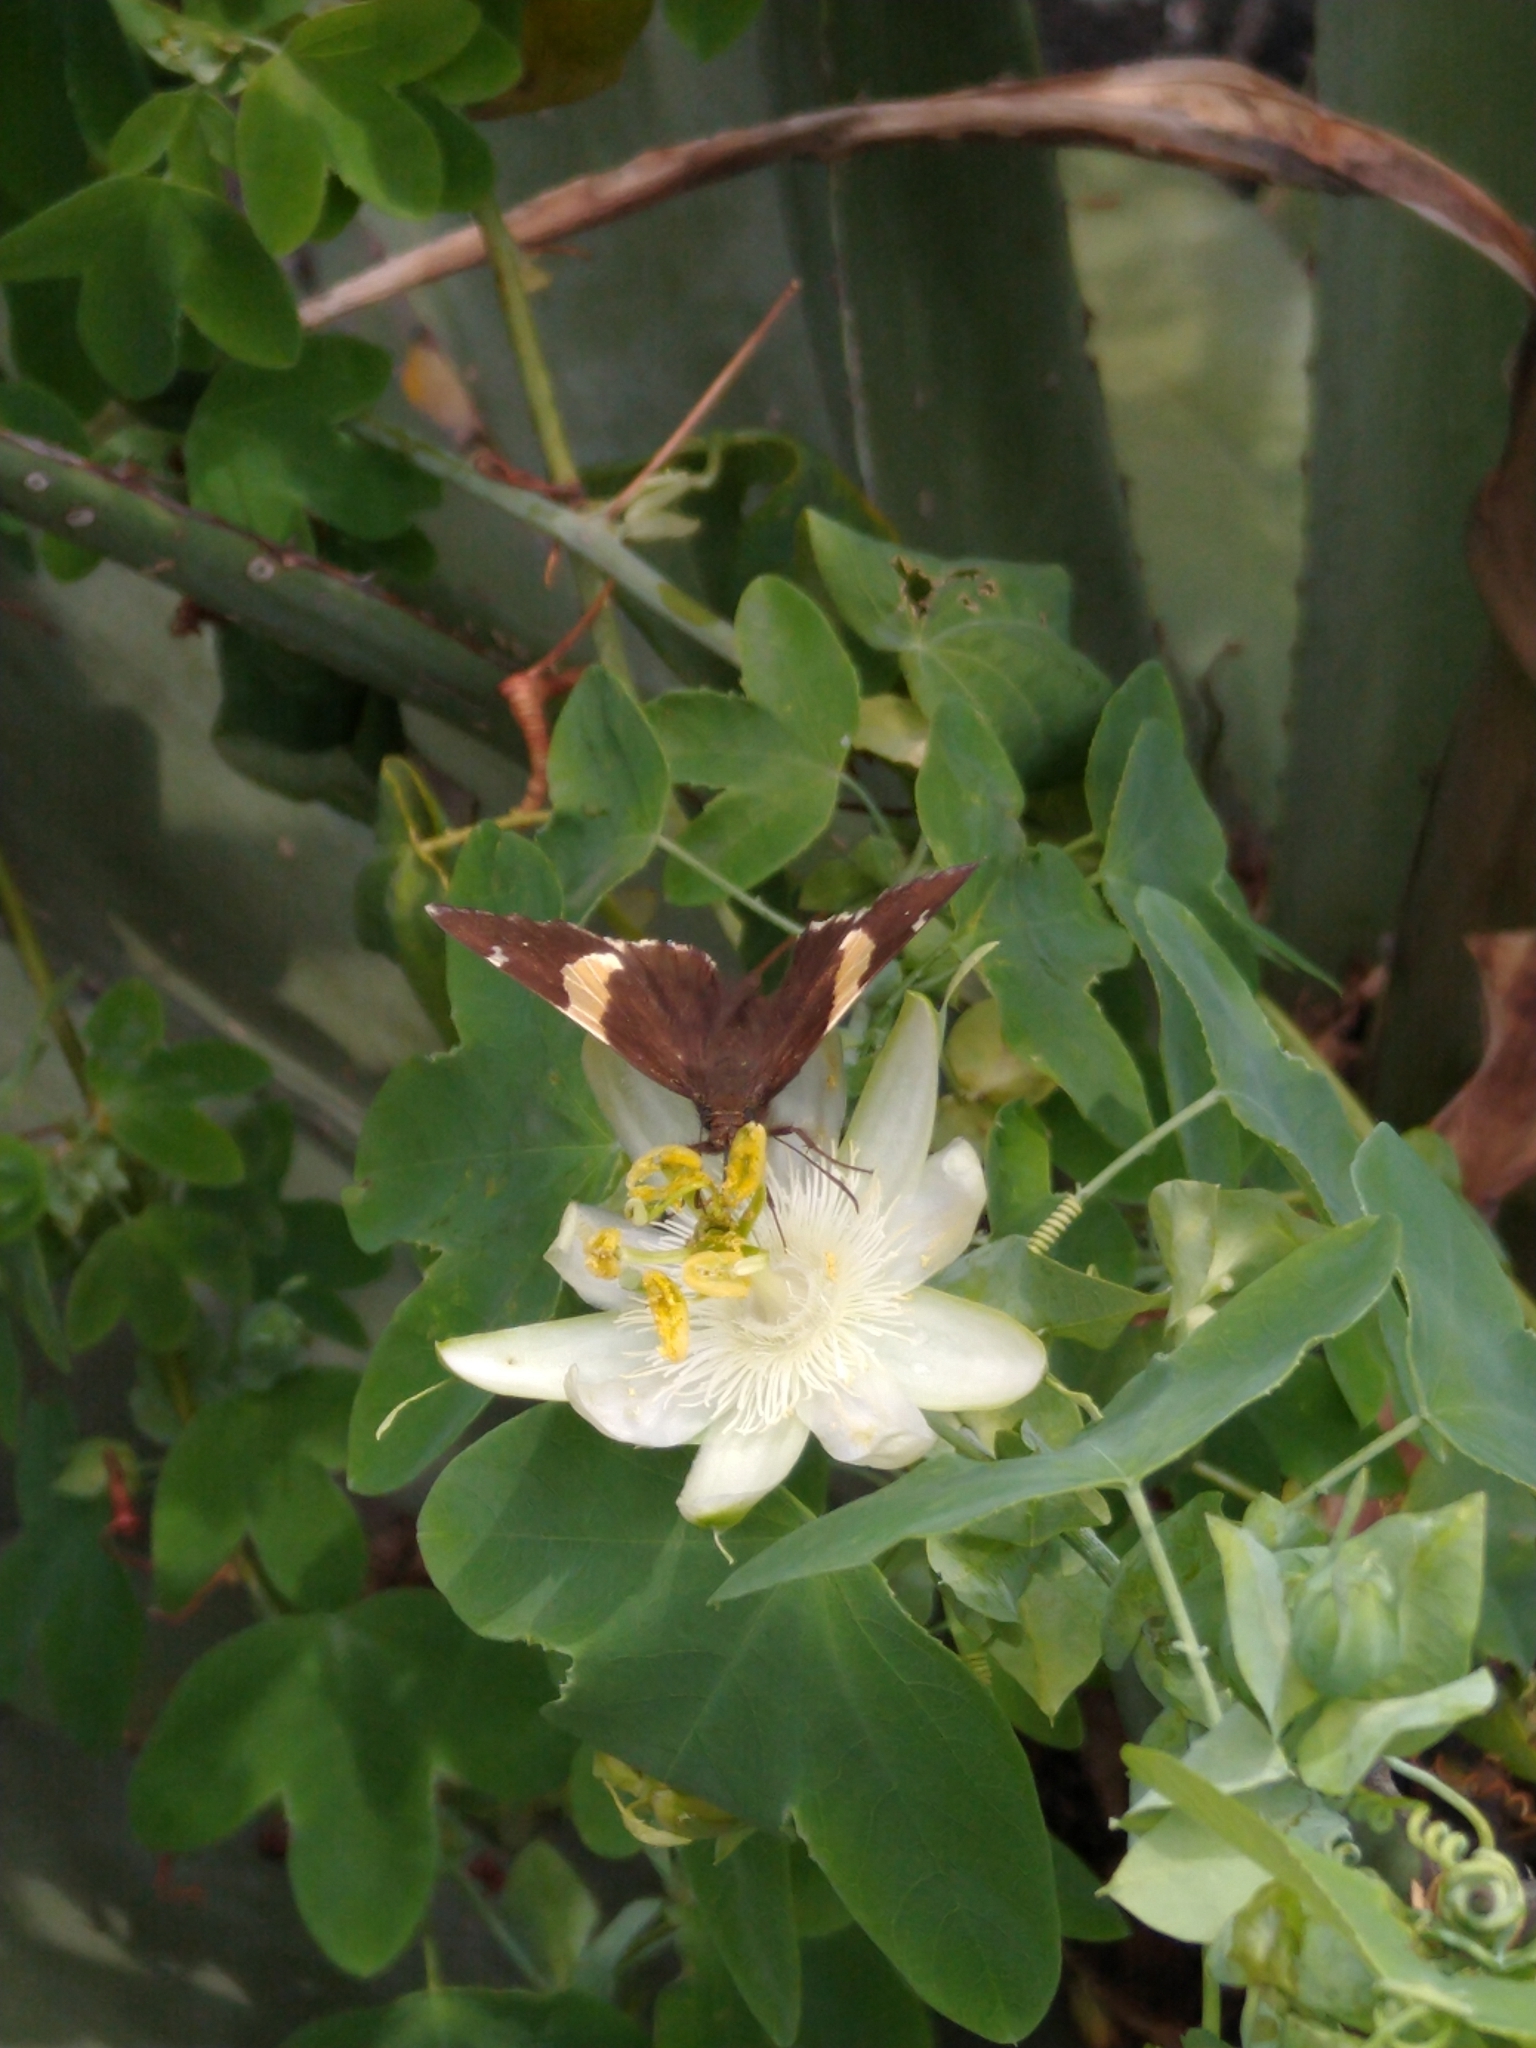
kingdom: Animalia
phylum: Arthropoda
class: Arachnida
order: Scorpiones
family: Bothriuridae
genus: Telegonus
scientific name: Telegonus cellus
